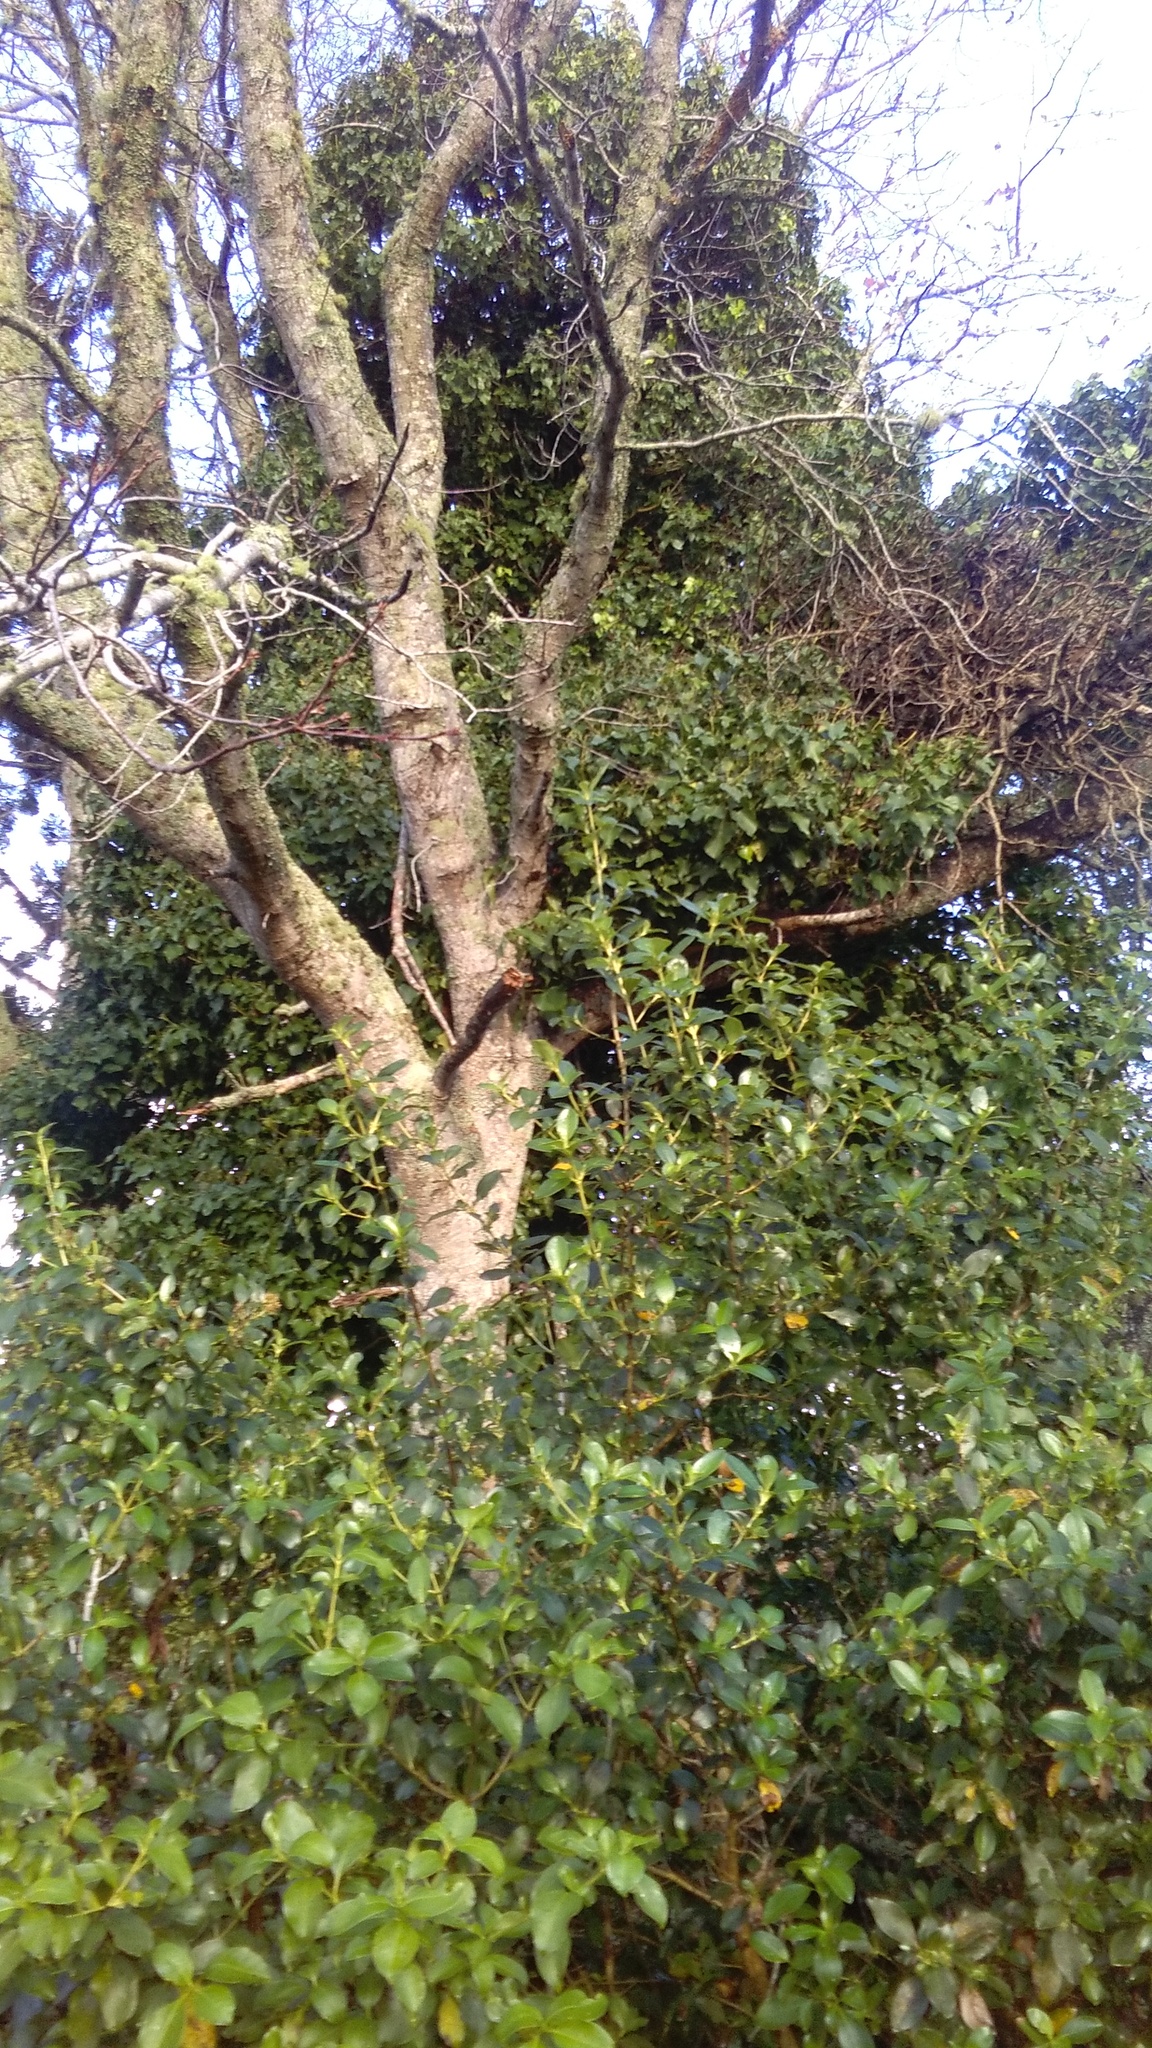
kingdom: Plantae
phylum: Tracheophyta
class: Magnoliopsida
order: Apiales
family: Araliaceae
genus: Hedera
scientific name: Hedera helix
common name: Ivy
